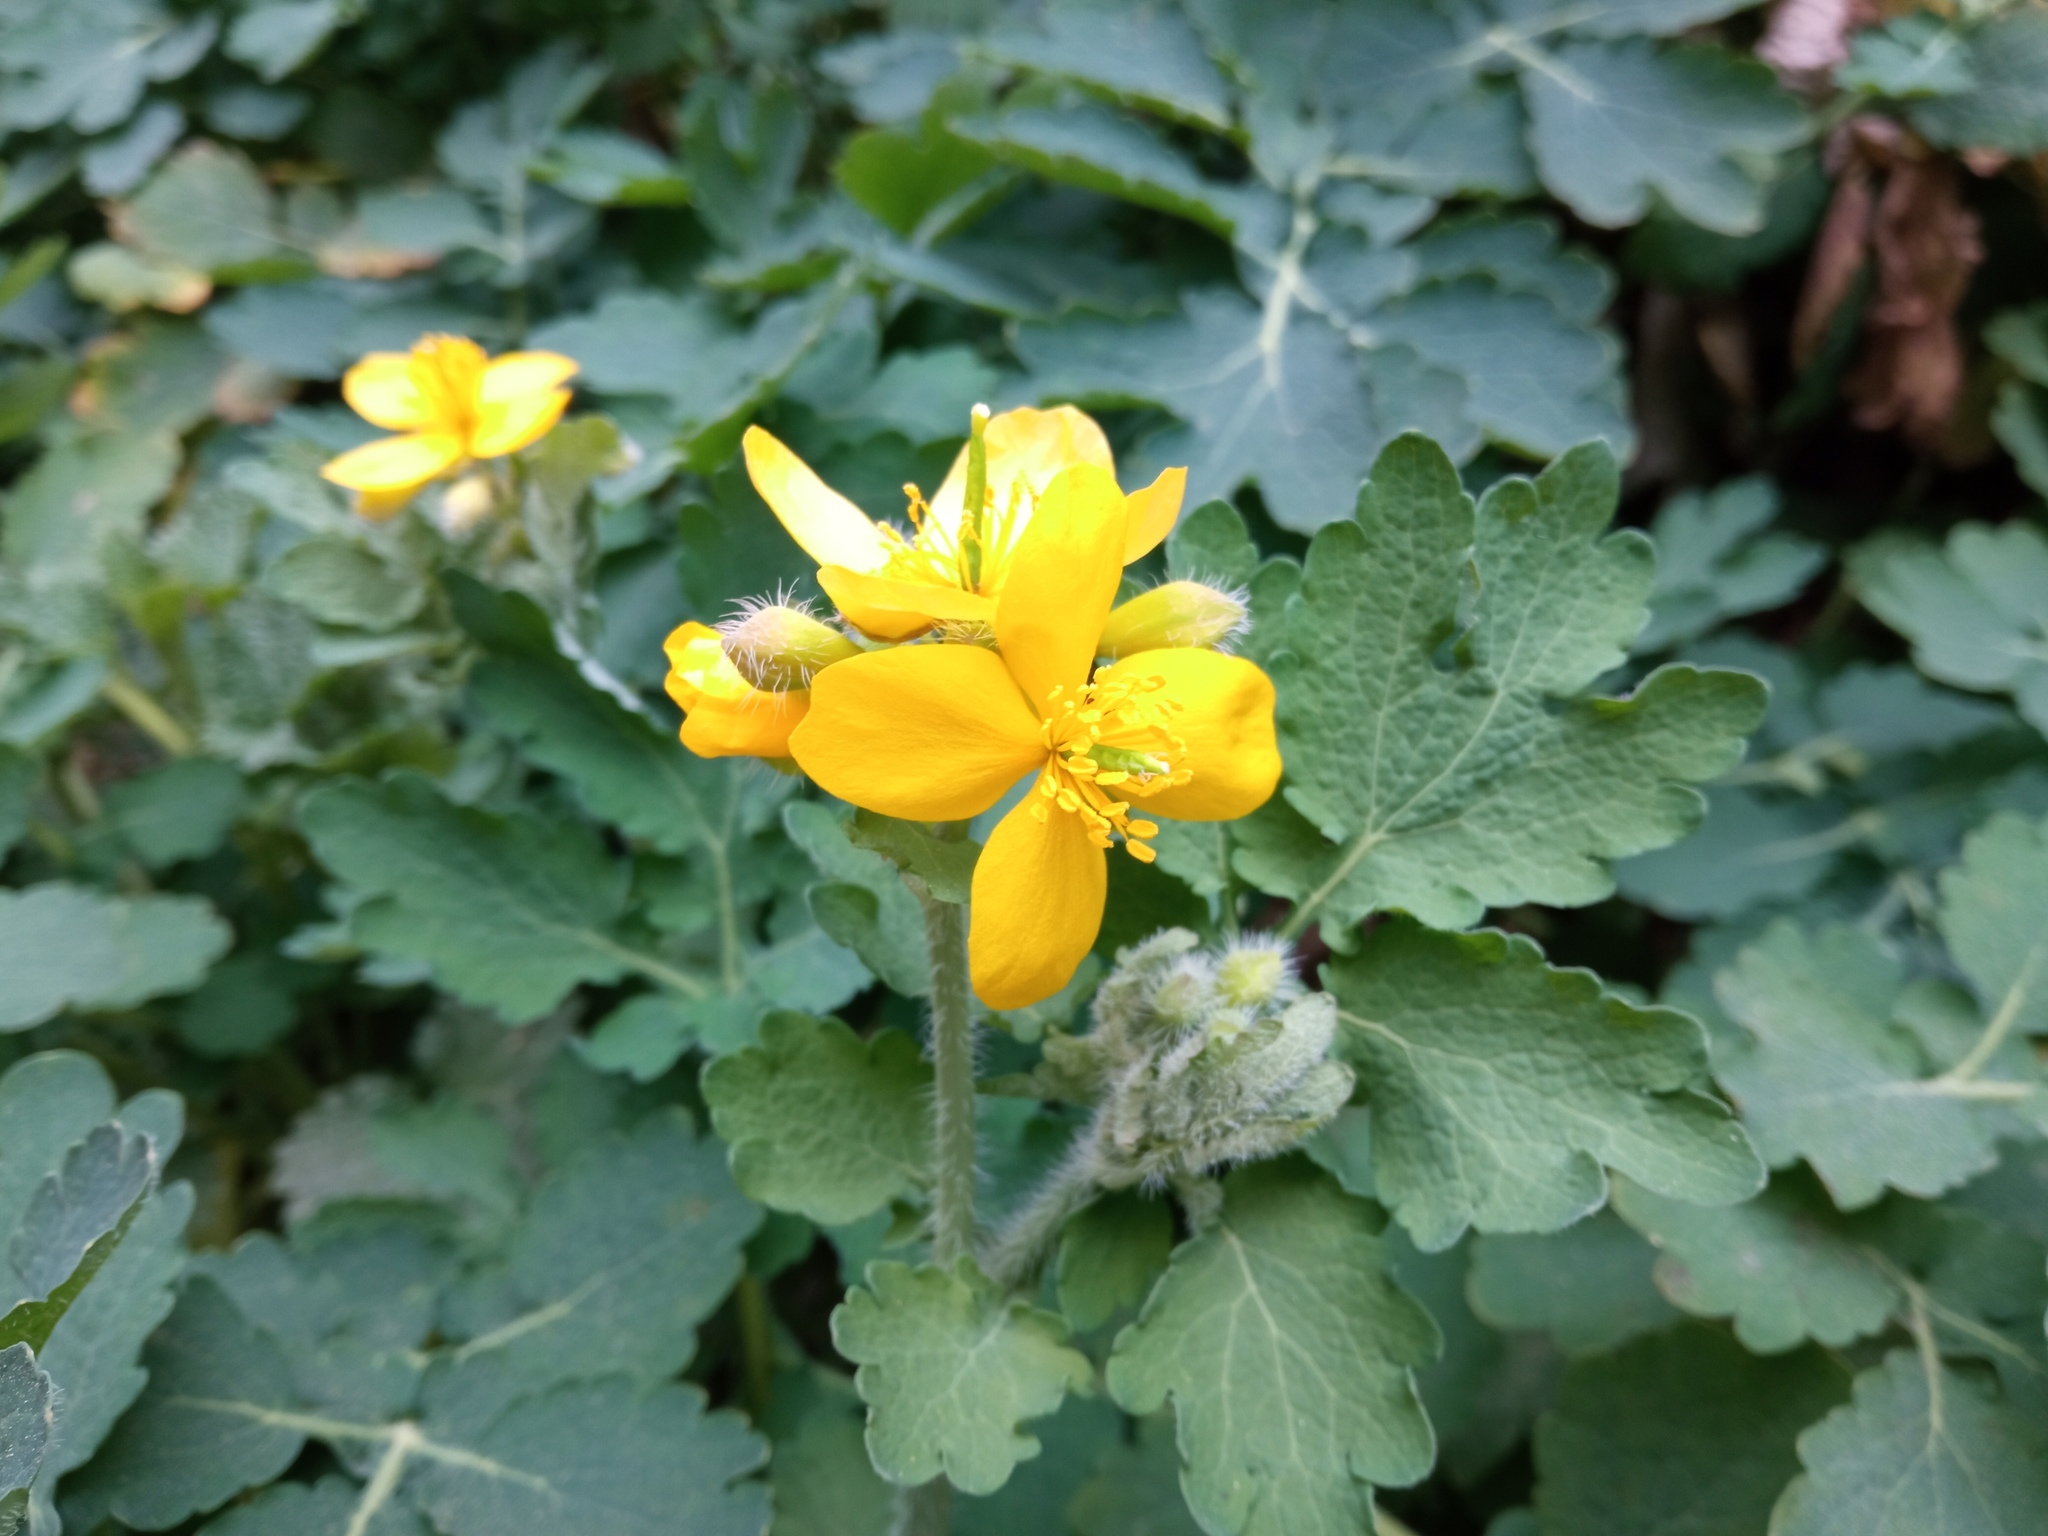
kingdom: Plantae
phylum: Tracheophyta
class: Magnoliopsida
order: Ranunculales
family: Papaveraceae
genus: Chelidonium
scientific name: Chelidonium majus
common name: Greater celandine
